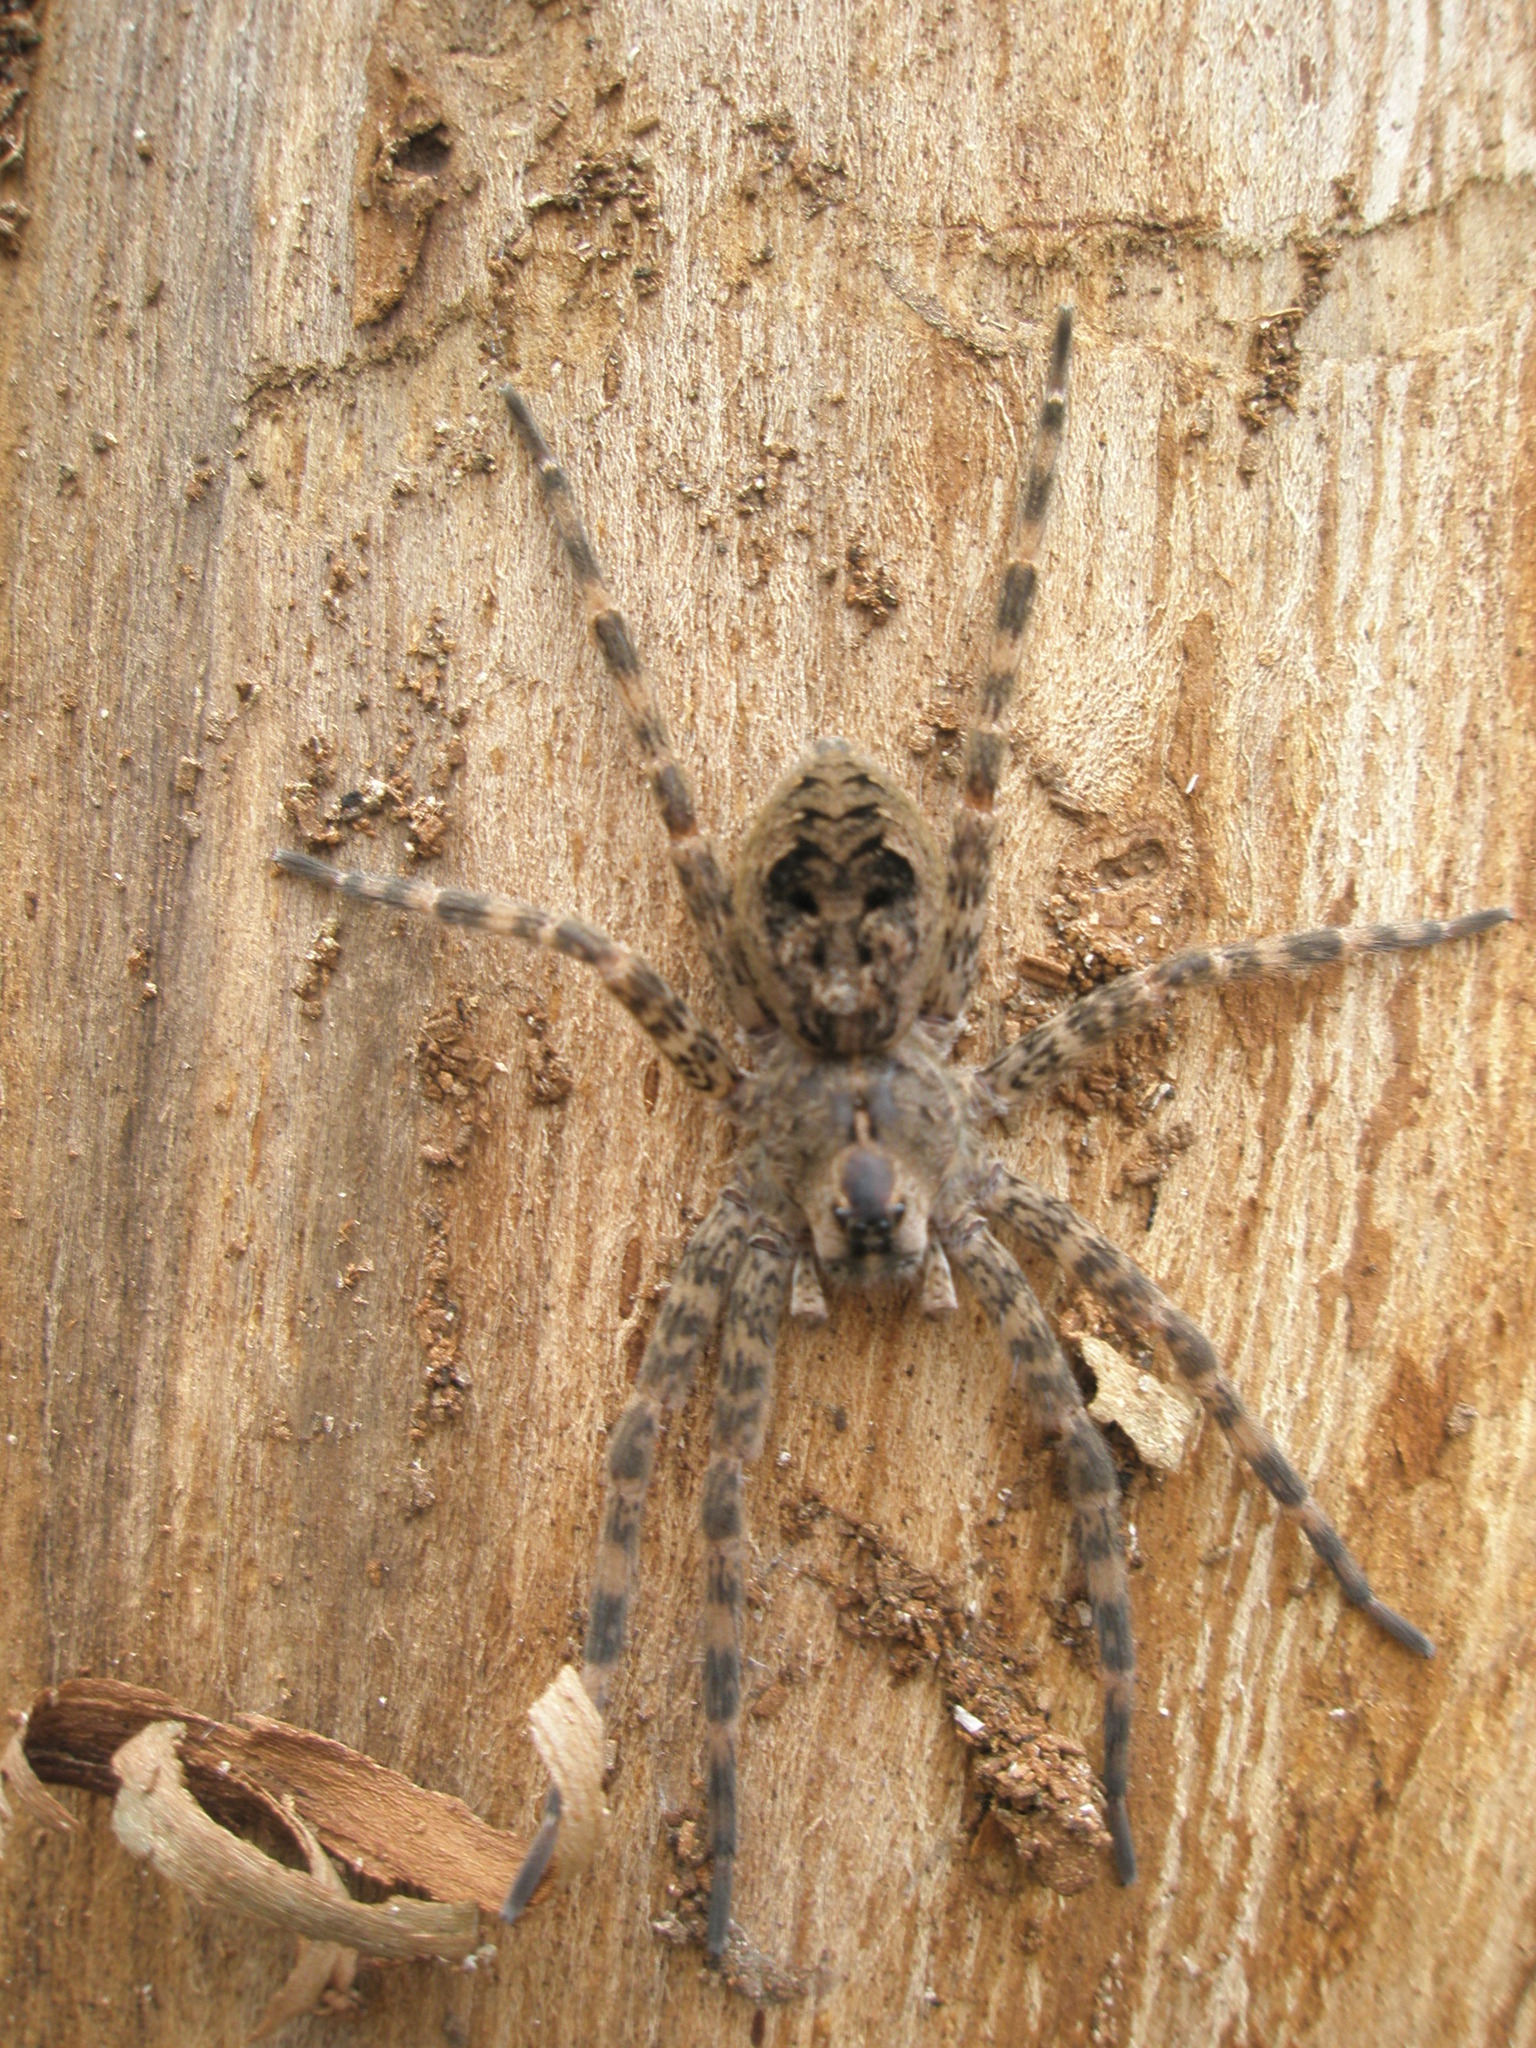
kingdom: Animalia
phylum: Arthropoda
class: Arachnida
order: Araneae
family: Pisauridae
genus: Dolomedes
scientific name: Dolomedes tenebrosus
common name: Dark fishing spider
